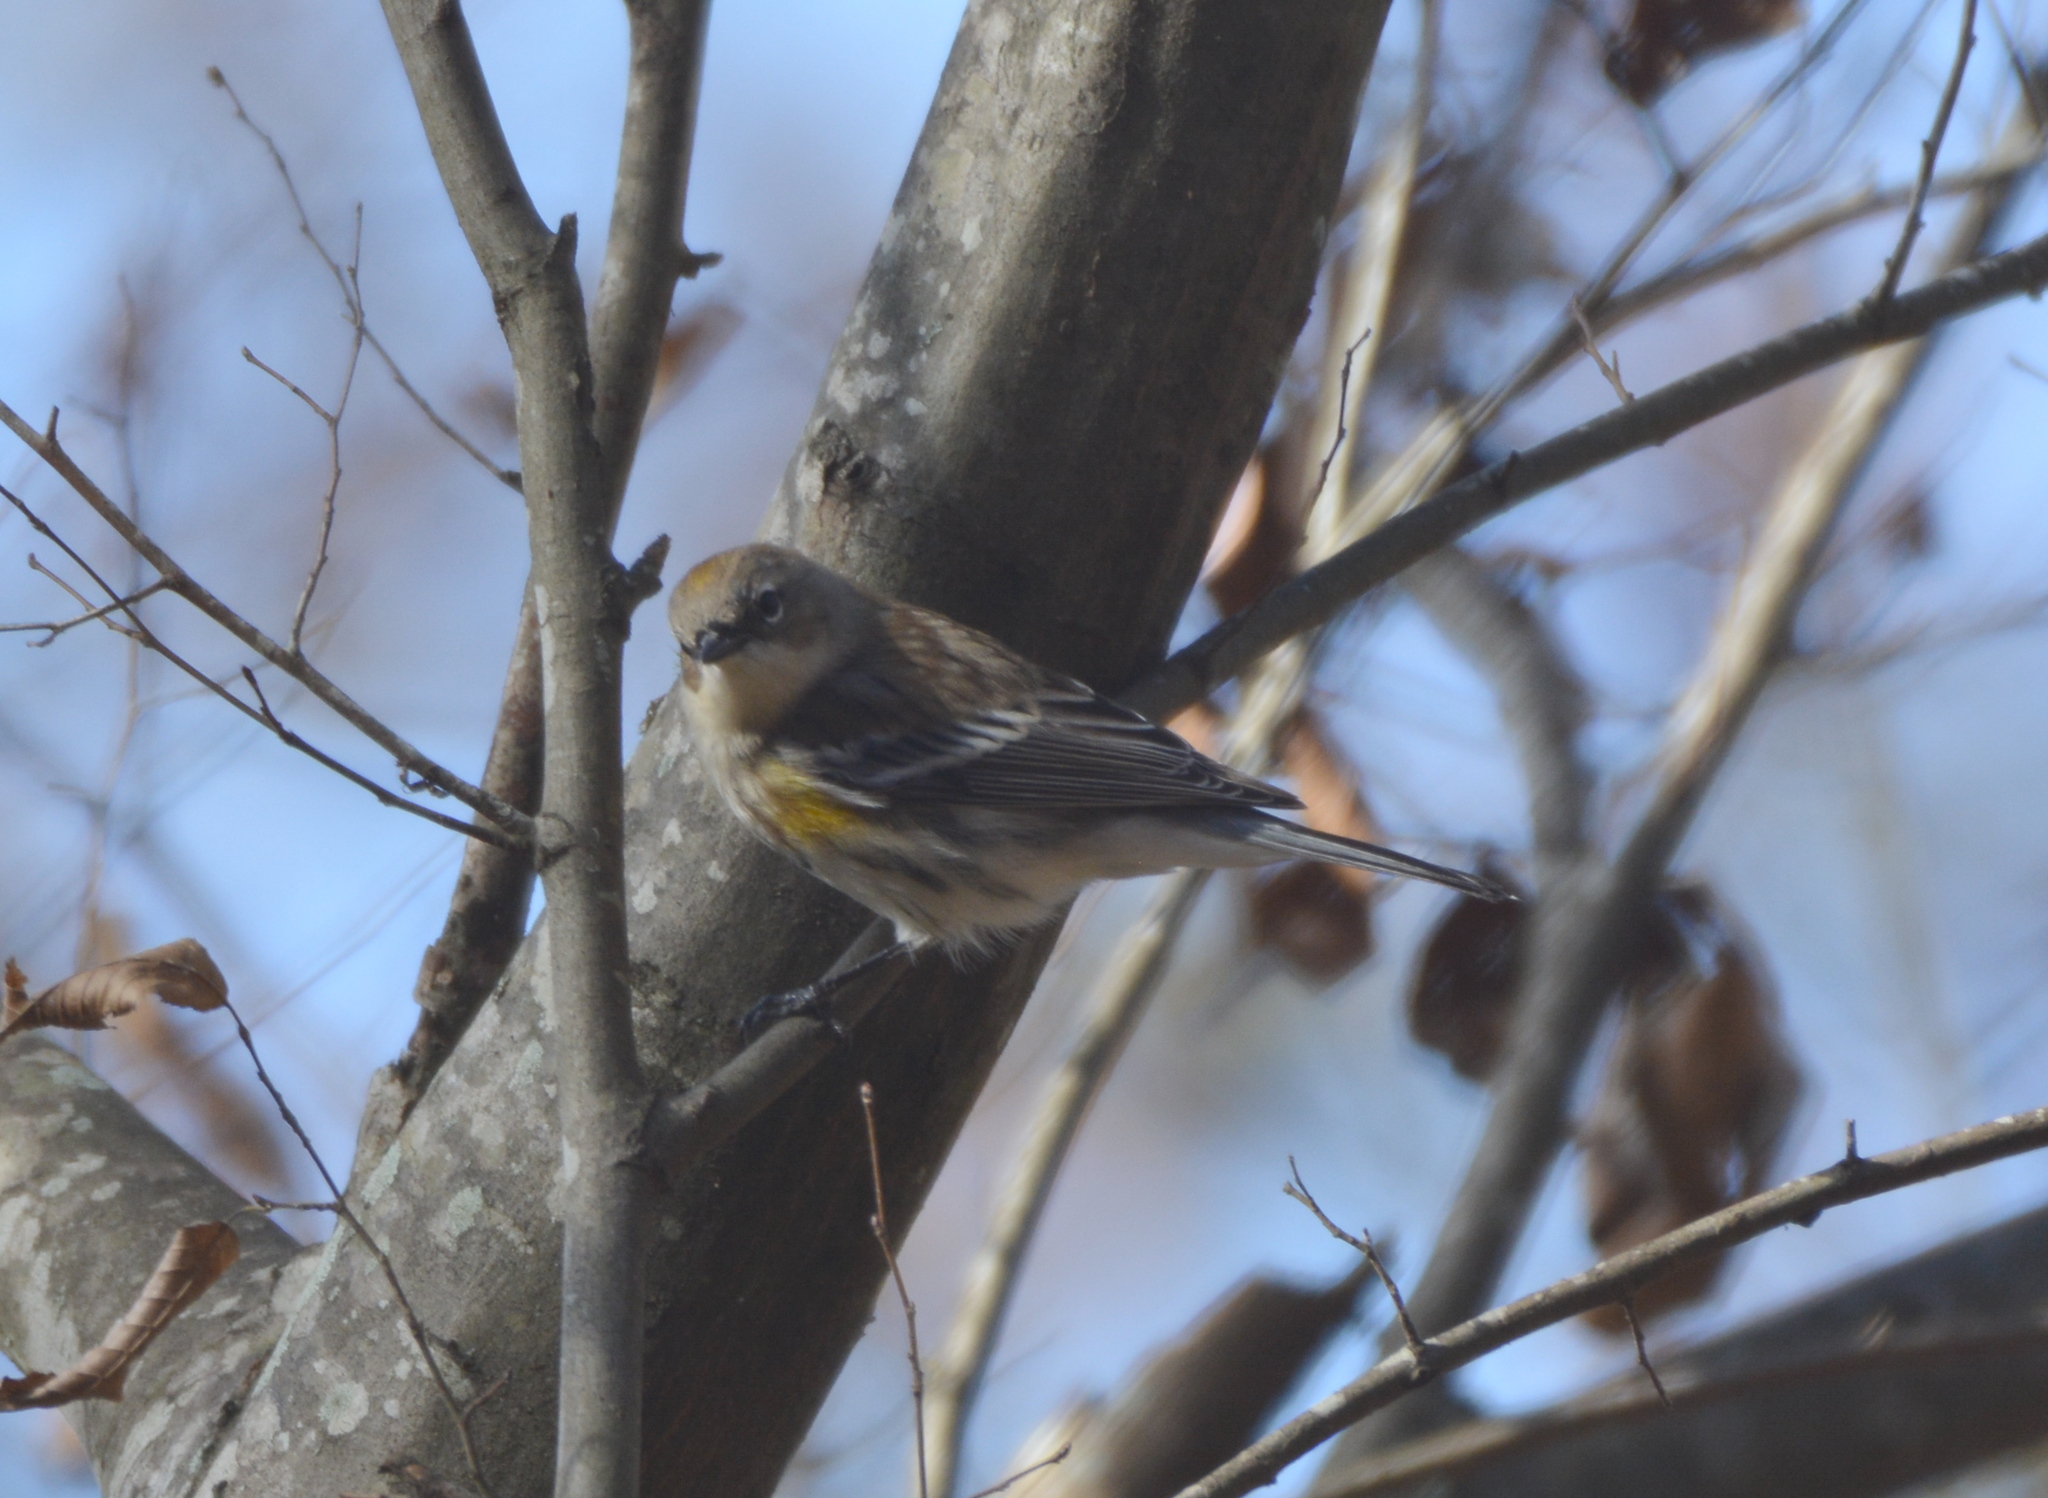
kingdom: Animalia
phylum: Chordata
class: Aves
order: Passeriformes
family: Parulidae
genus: Setophaga
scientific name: Setophaga coronata
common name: Myrtle warbler
